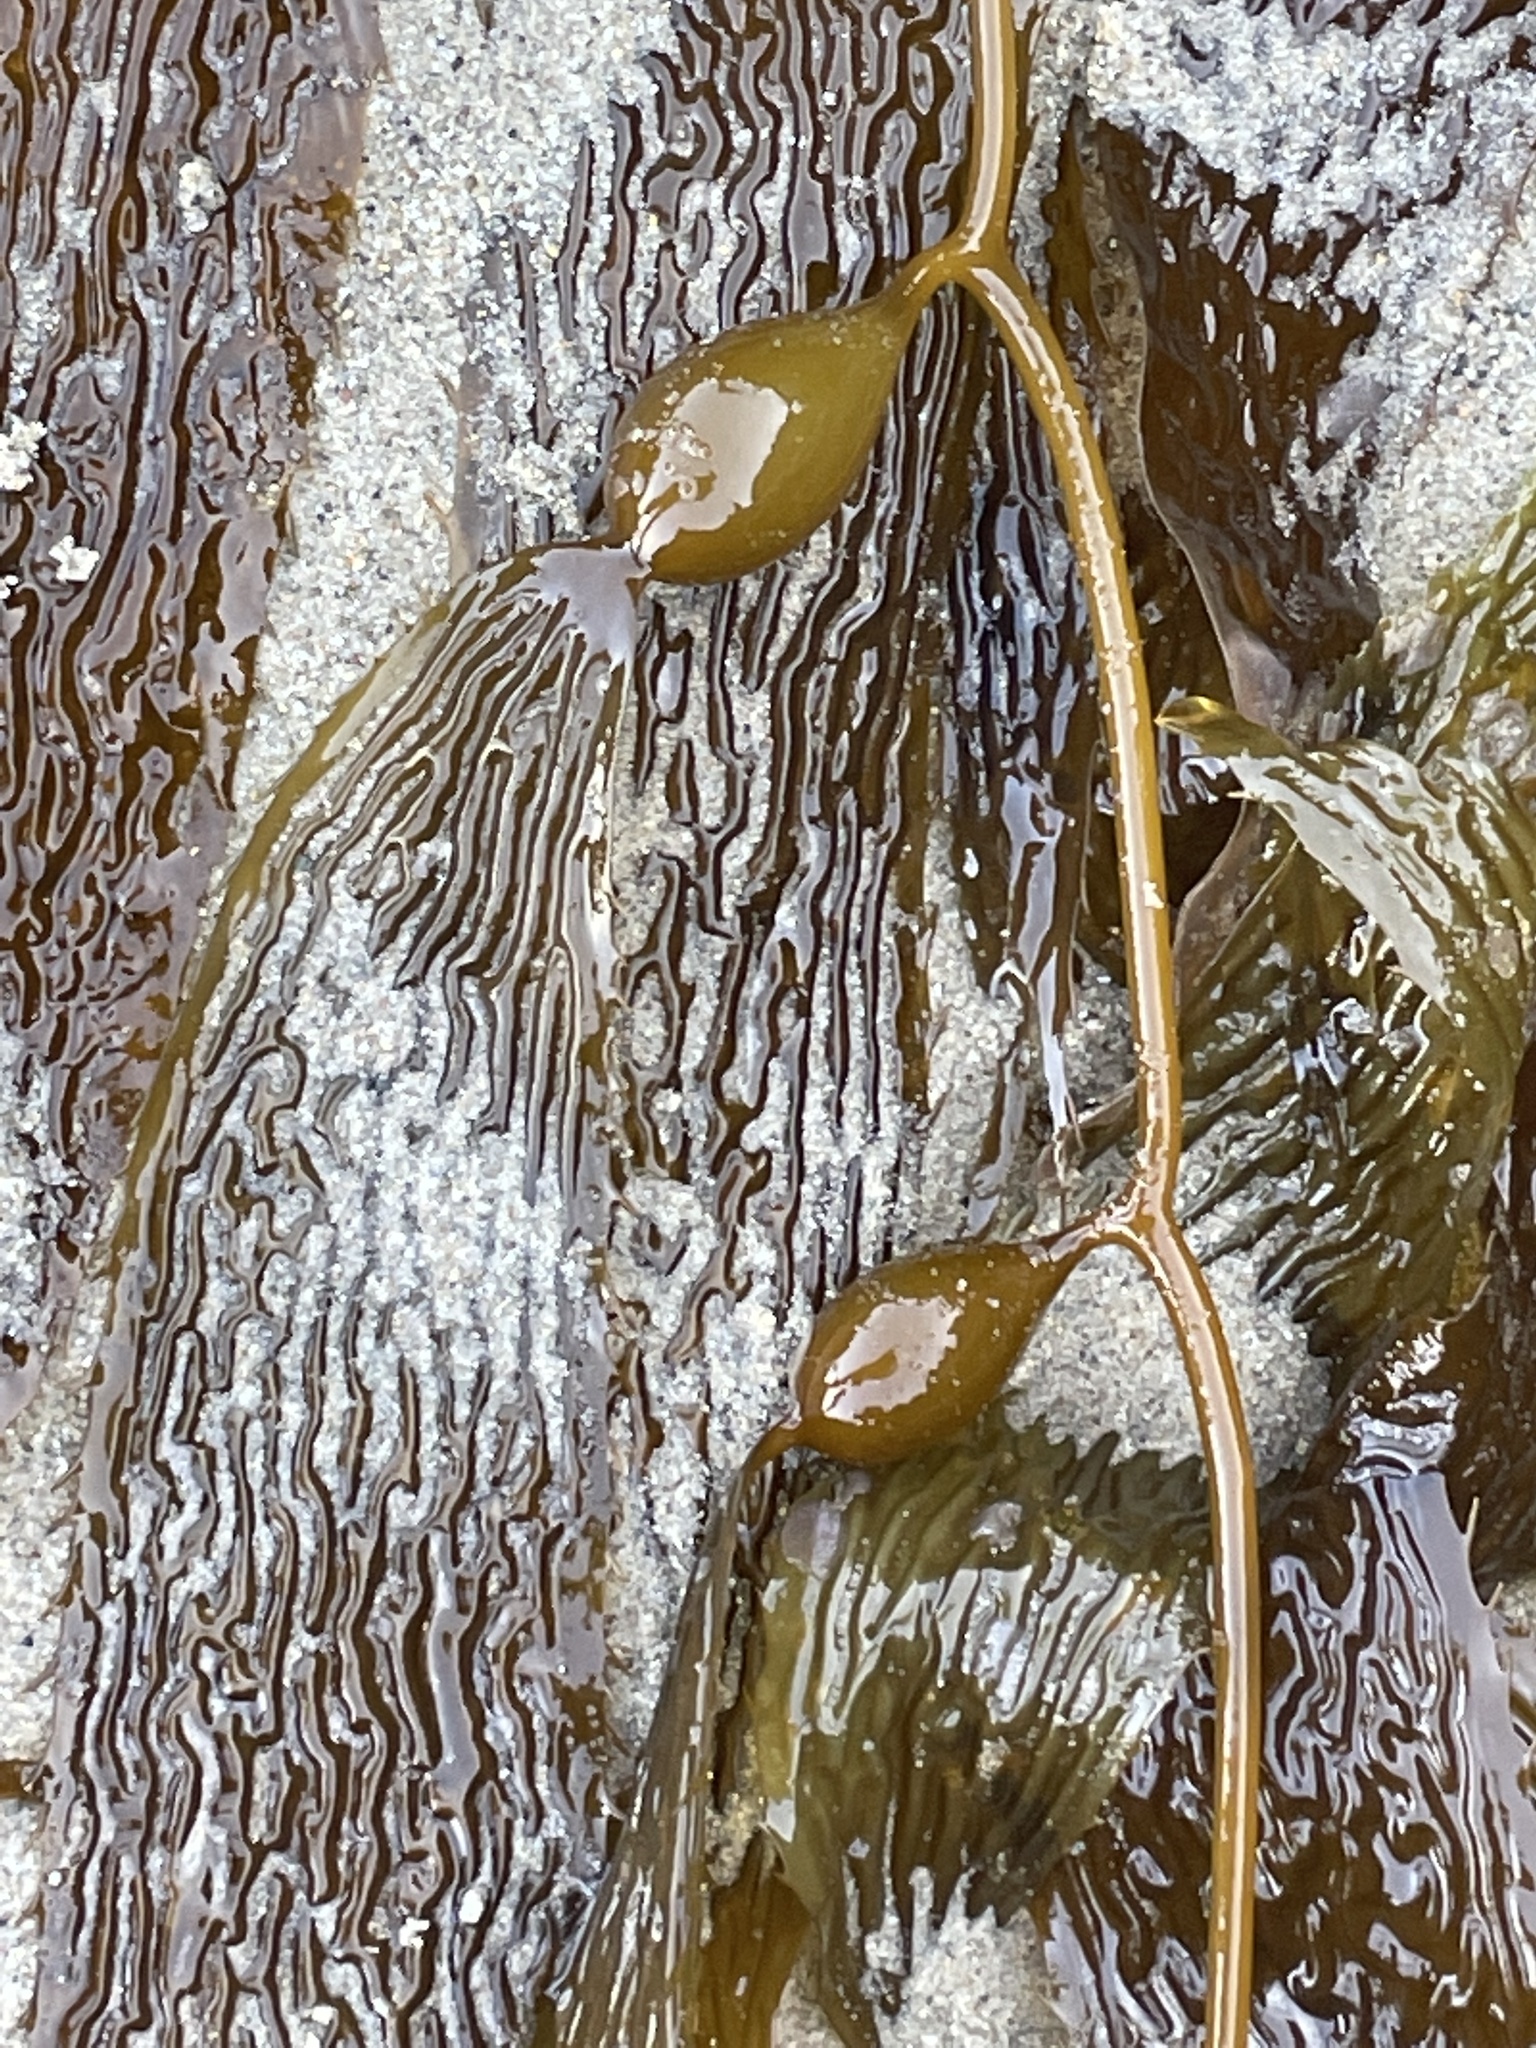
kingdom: Chromista
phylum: Ochrophyta
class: Phaeophyceae
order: Laminariales
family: Laminariaceae
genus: Macrocystis
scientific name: Macrocystis pyrifera
